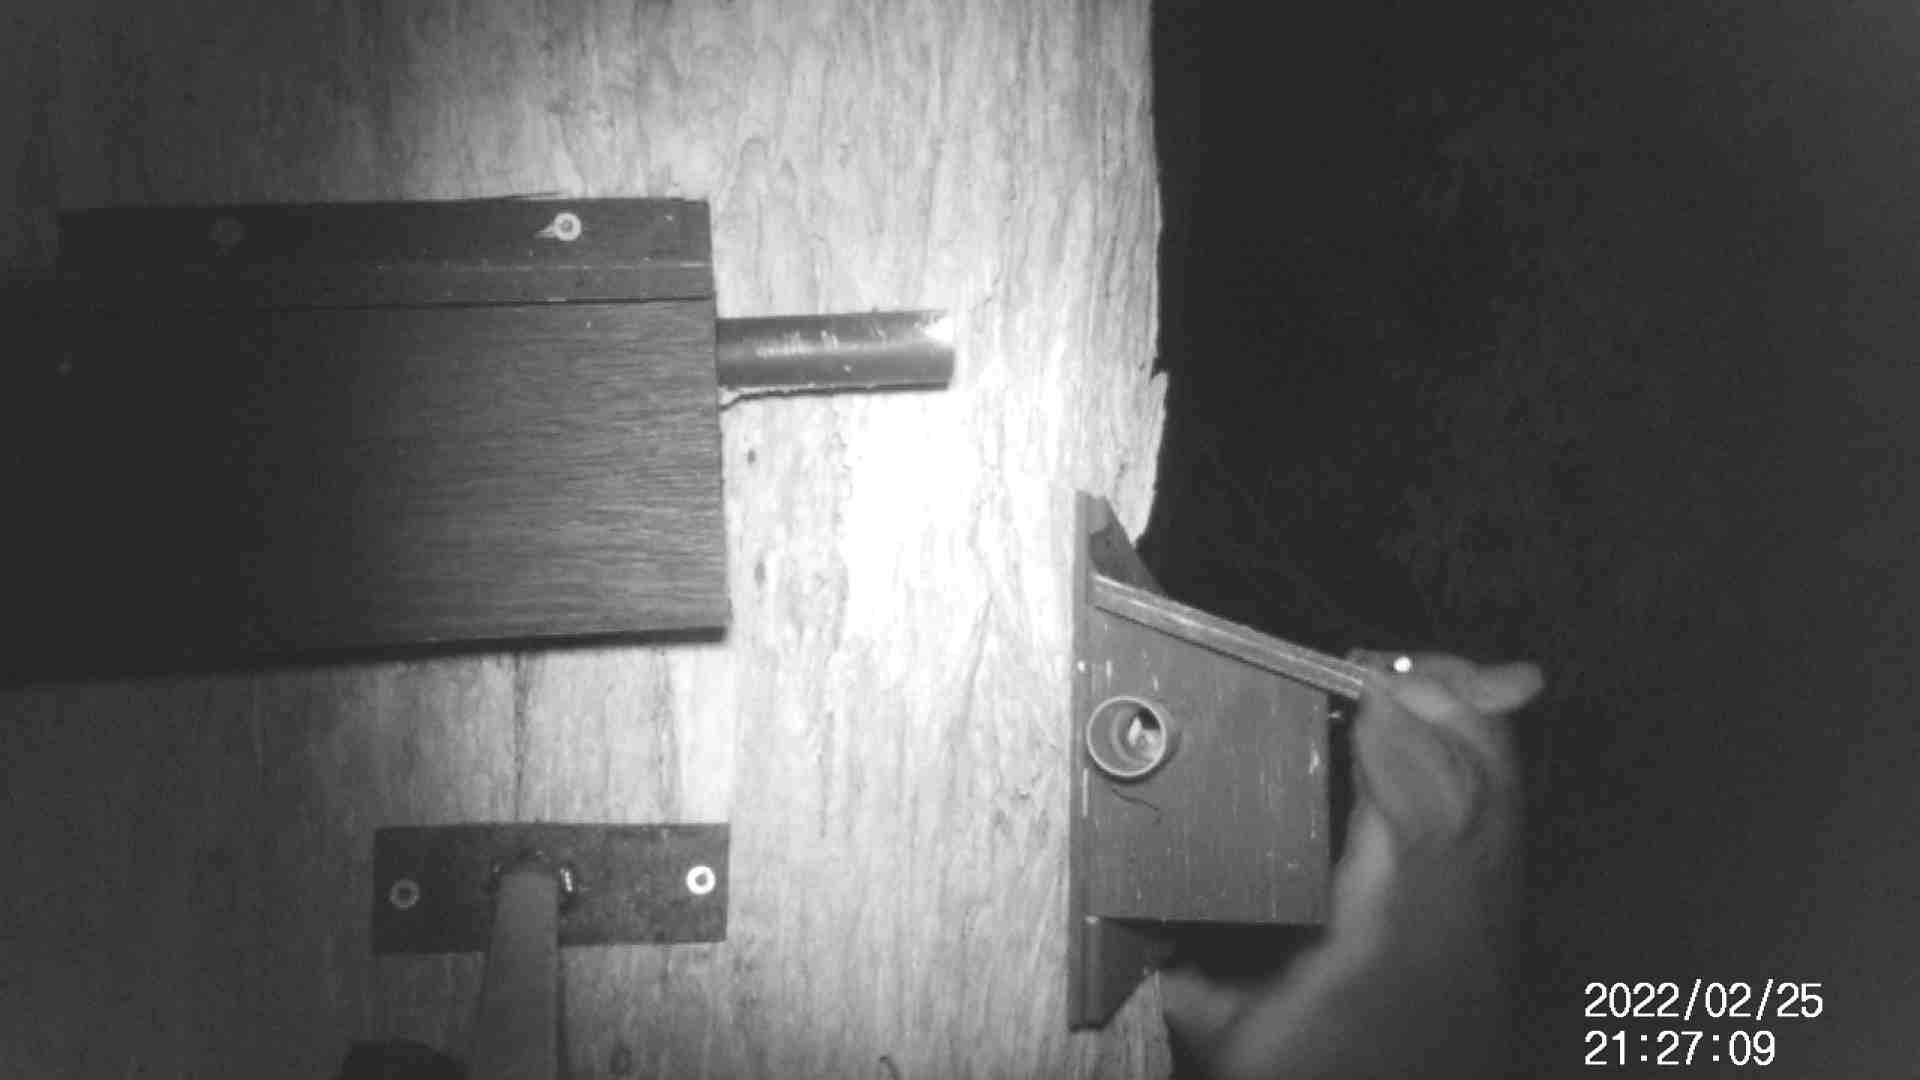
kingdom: Animalia
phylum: Chordata
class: Mammalia
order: Diprotodontia
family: Phalangeridae
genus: Trichosurus
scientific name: Trichosurus vulpecula
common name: Common brushtail
